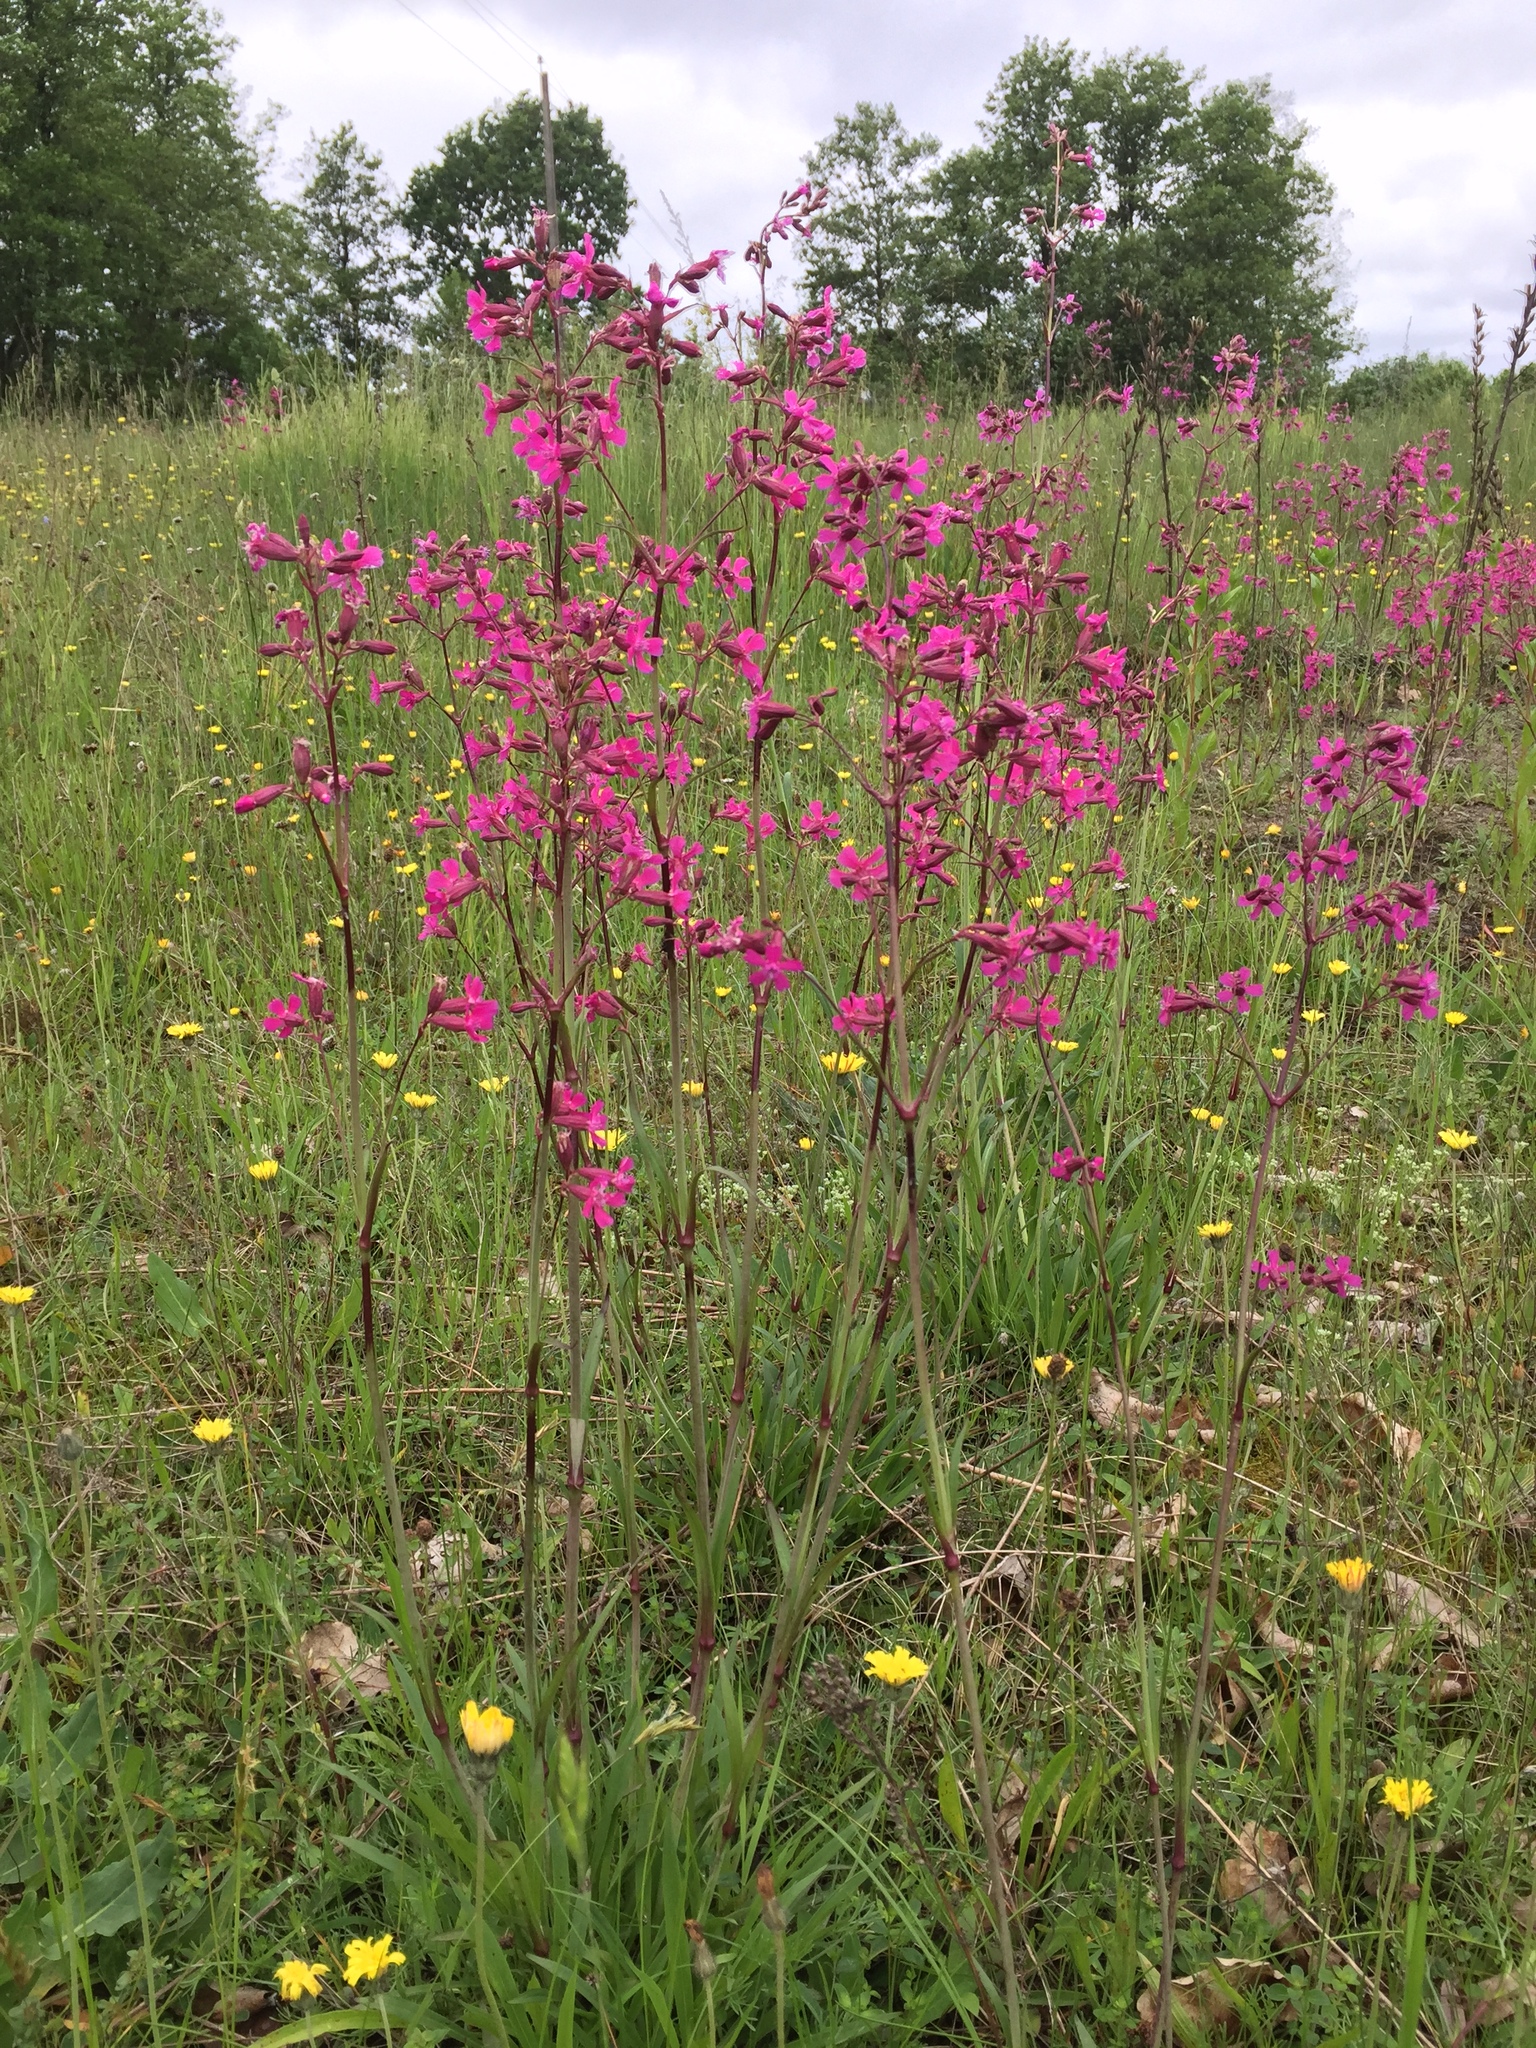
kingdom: Plantae
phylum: Tracheophyta
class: Magnoliopsida
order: Caryophyllales
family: Caryophyllaceae
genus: Viscaria
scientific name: Viscaria vulgaris
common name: Clammy campion
